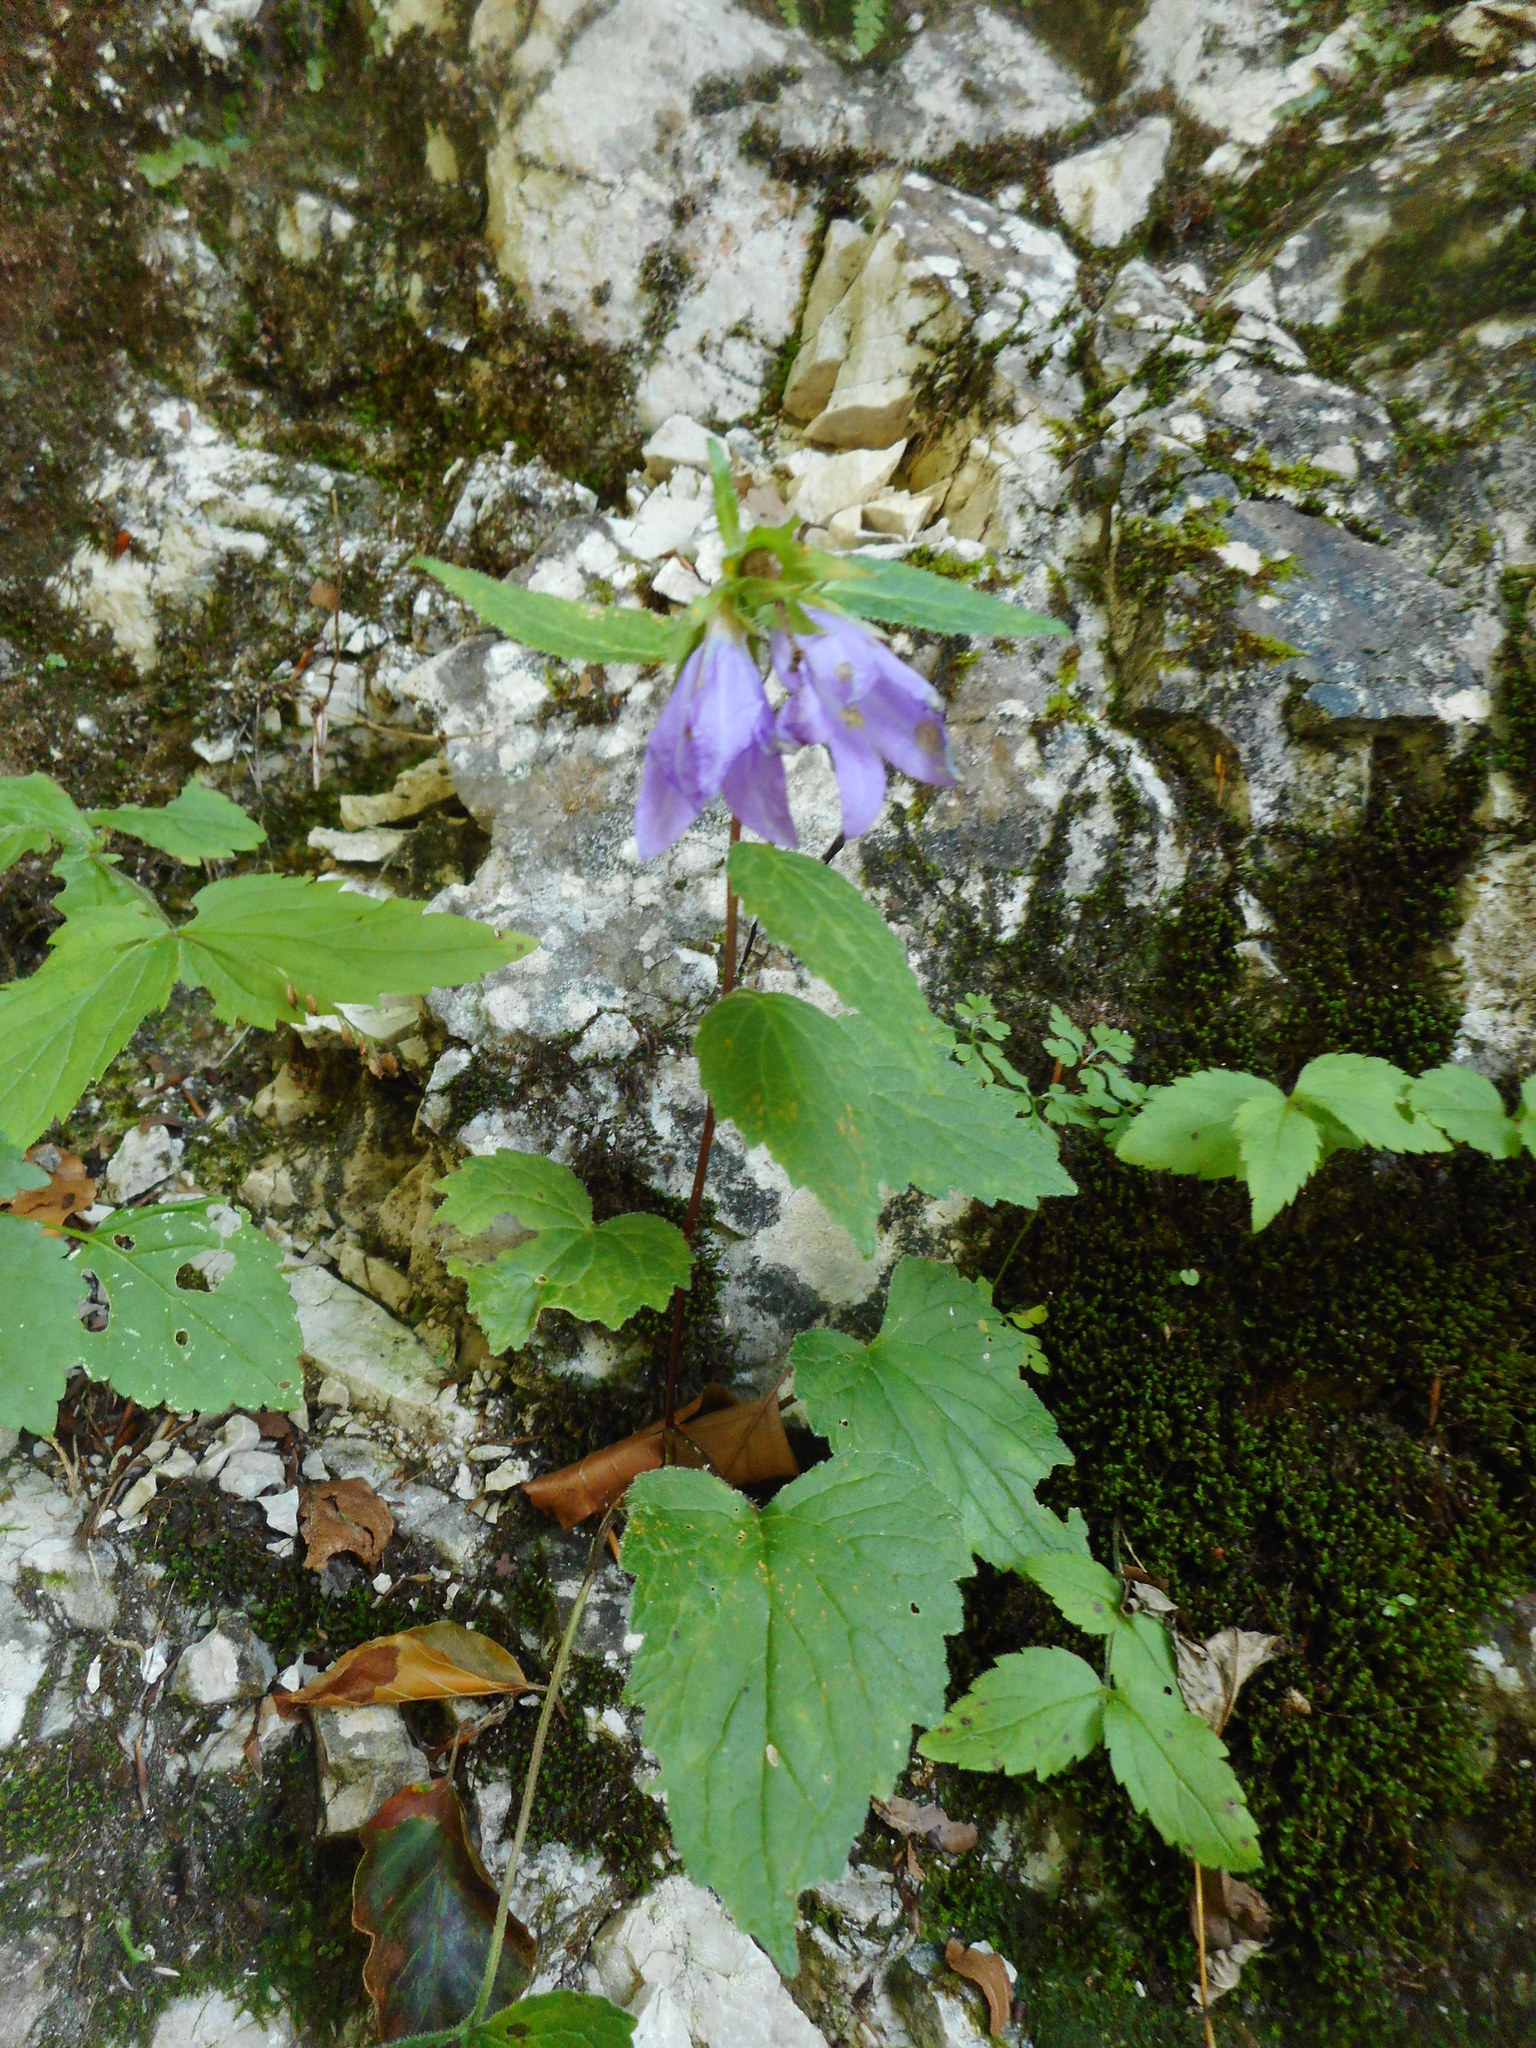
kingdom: Plantae
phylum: Tracheophyta
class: Magnoliopsida
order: Asterales
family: Campanulaceae
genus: Campanula
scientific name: Campanula trachelium
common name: Nettle-leaved bellflower
